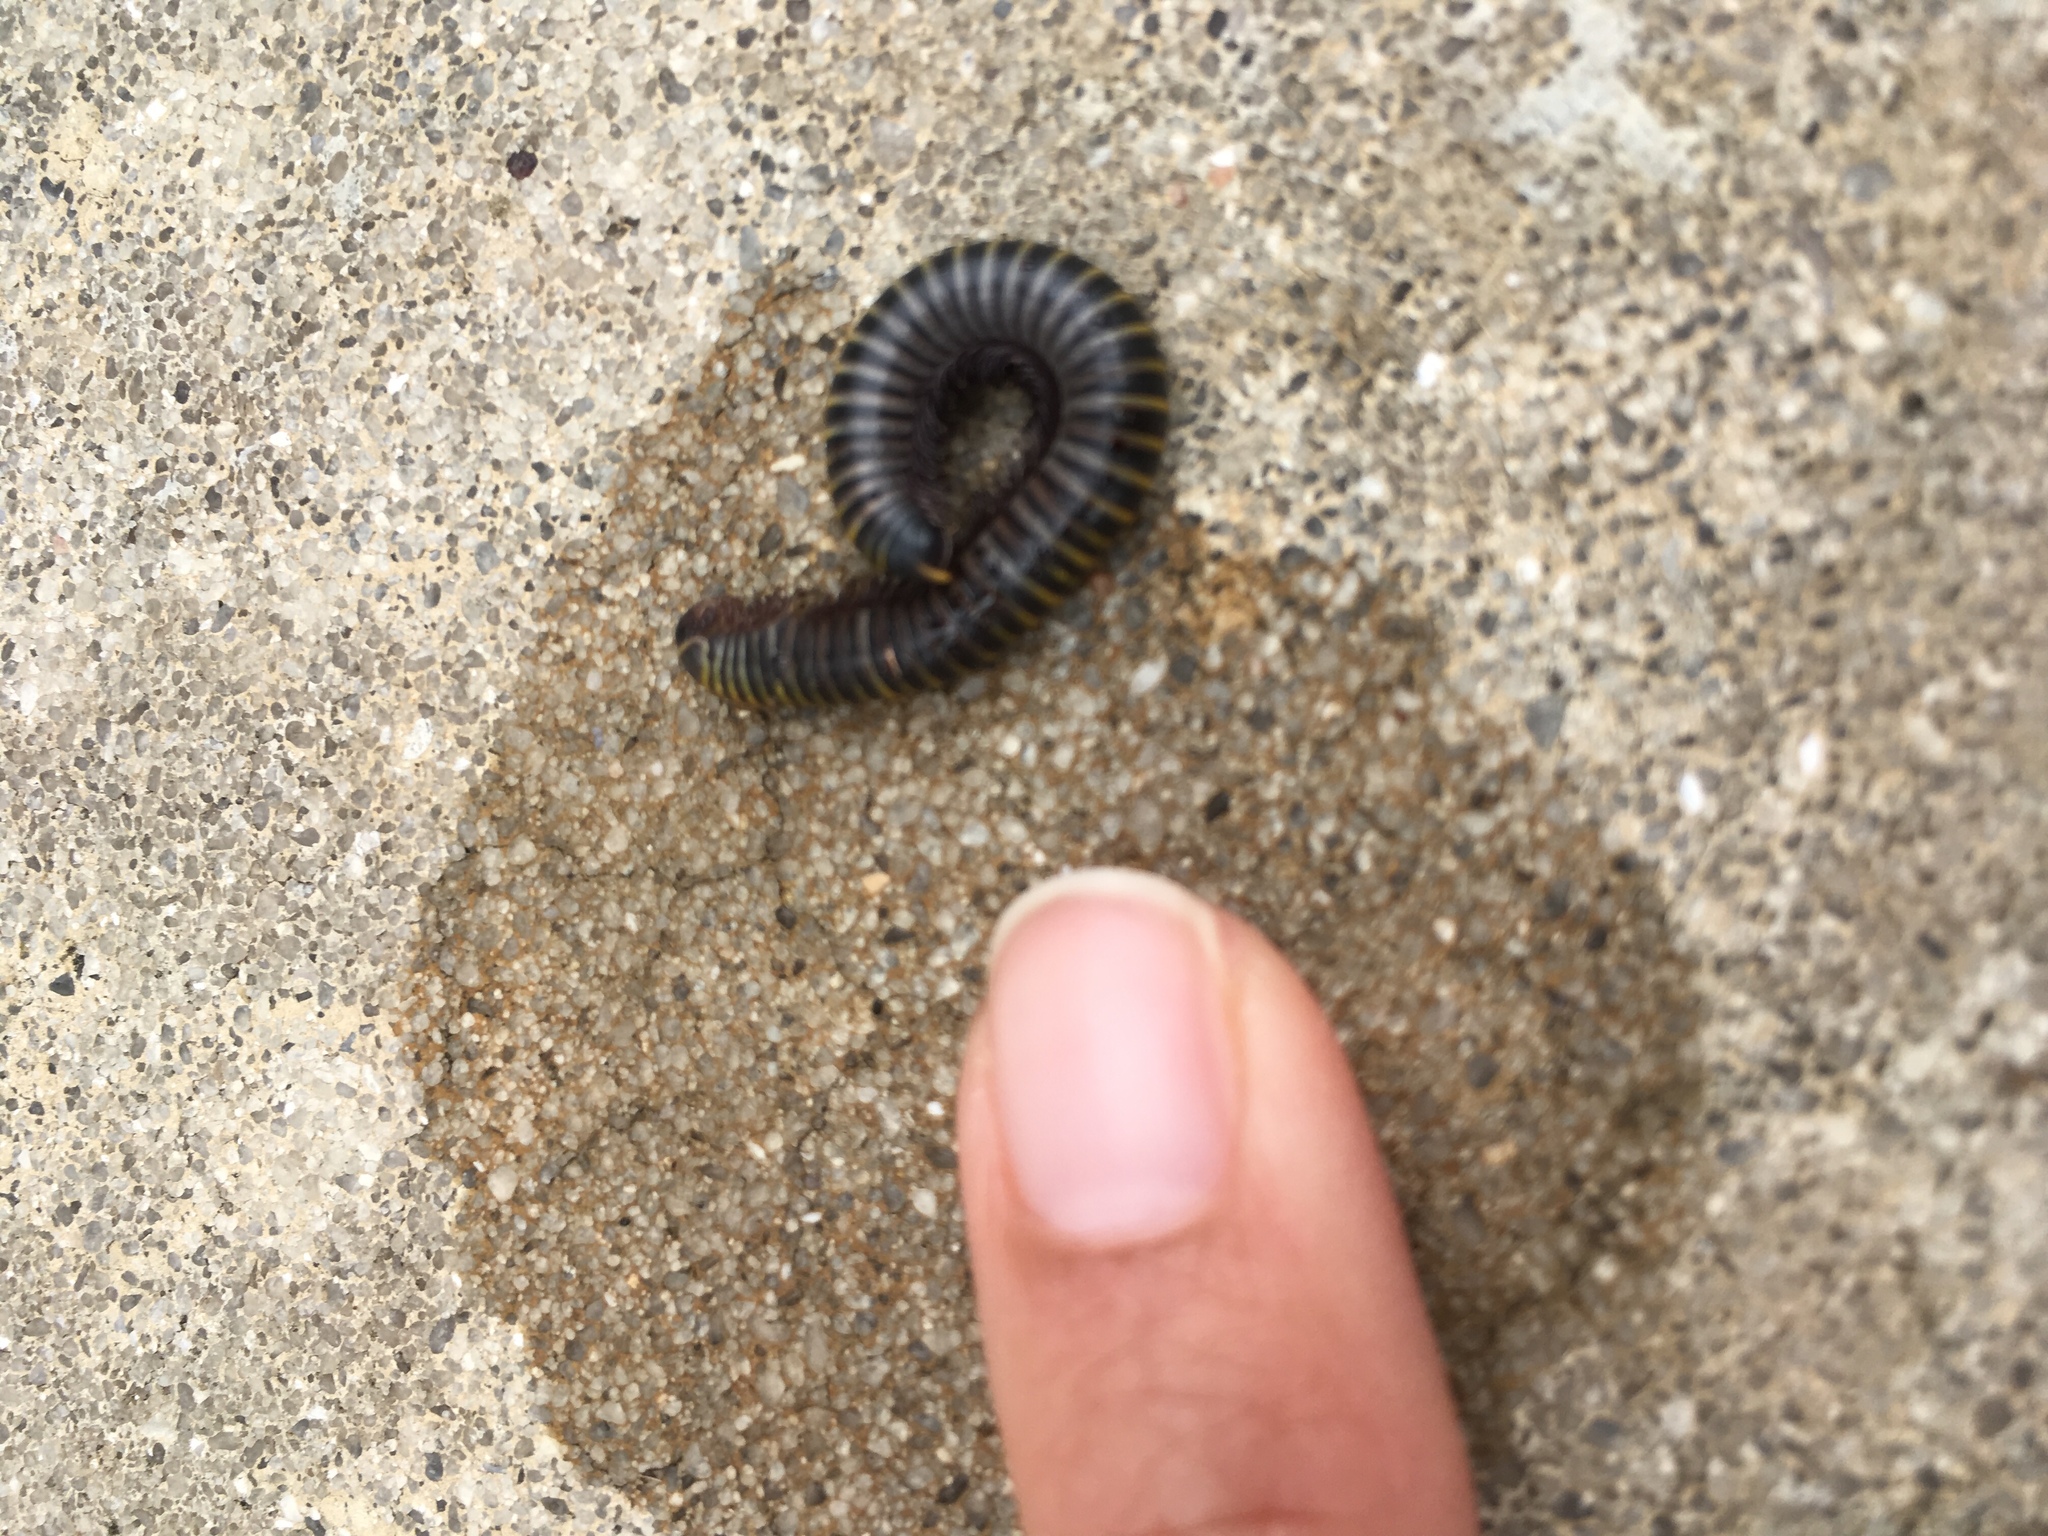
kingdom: Animalia
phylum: Arthropoda
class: Diplopoda
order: Spirobolida
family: Rhinocricidae
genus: Anadenobolus
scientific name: Anadenobolus monilicornis
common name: Caribbean millipede
